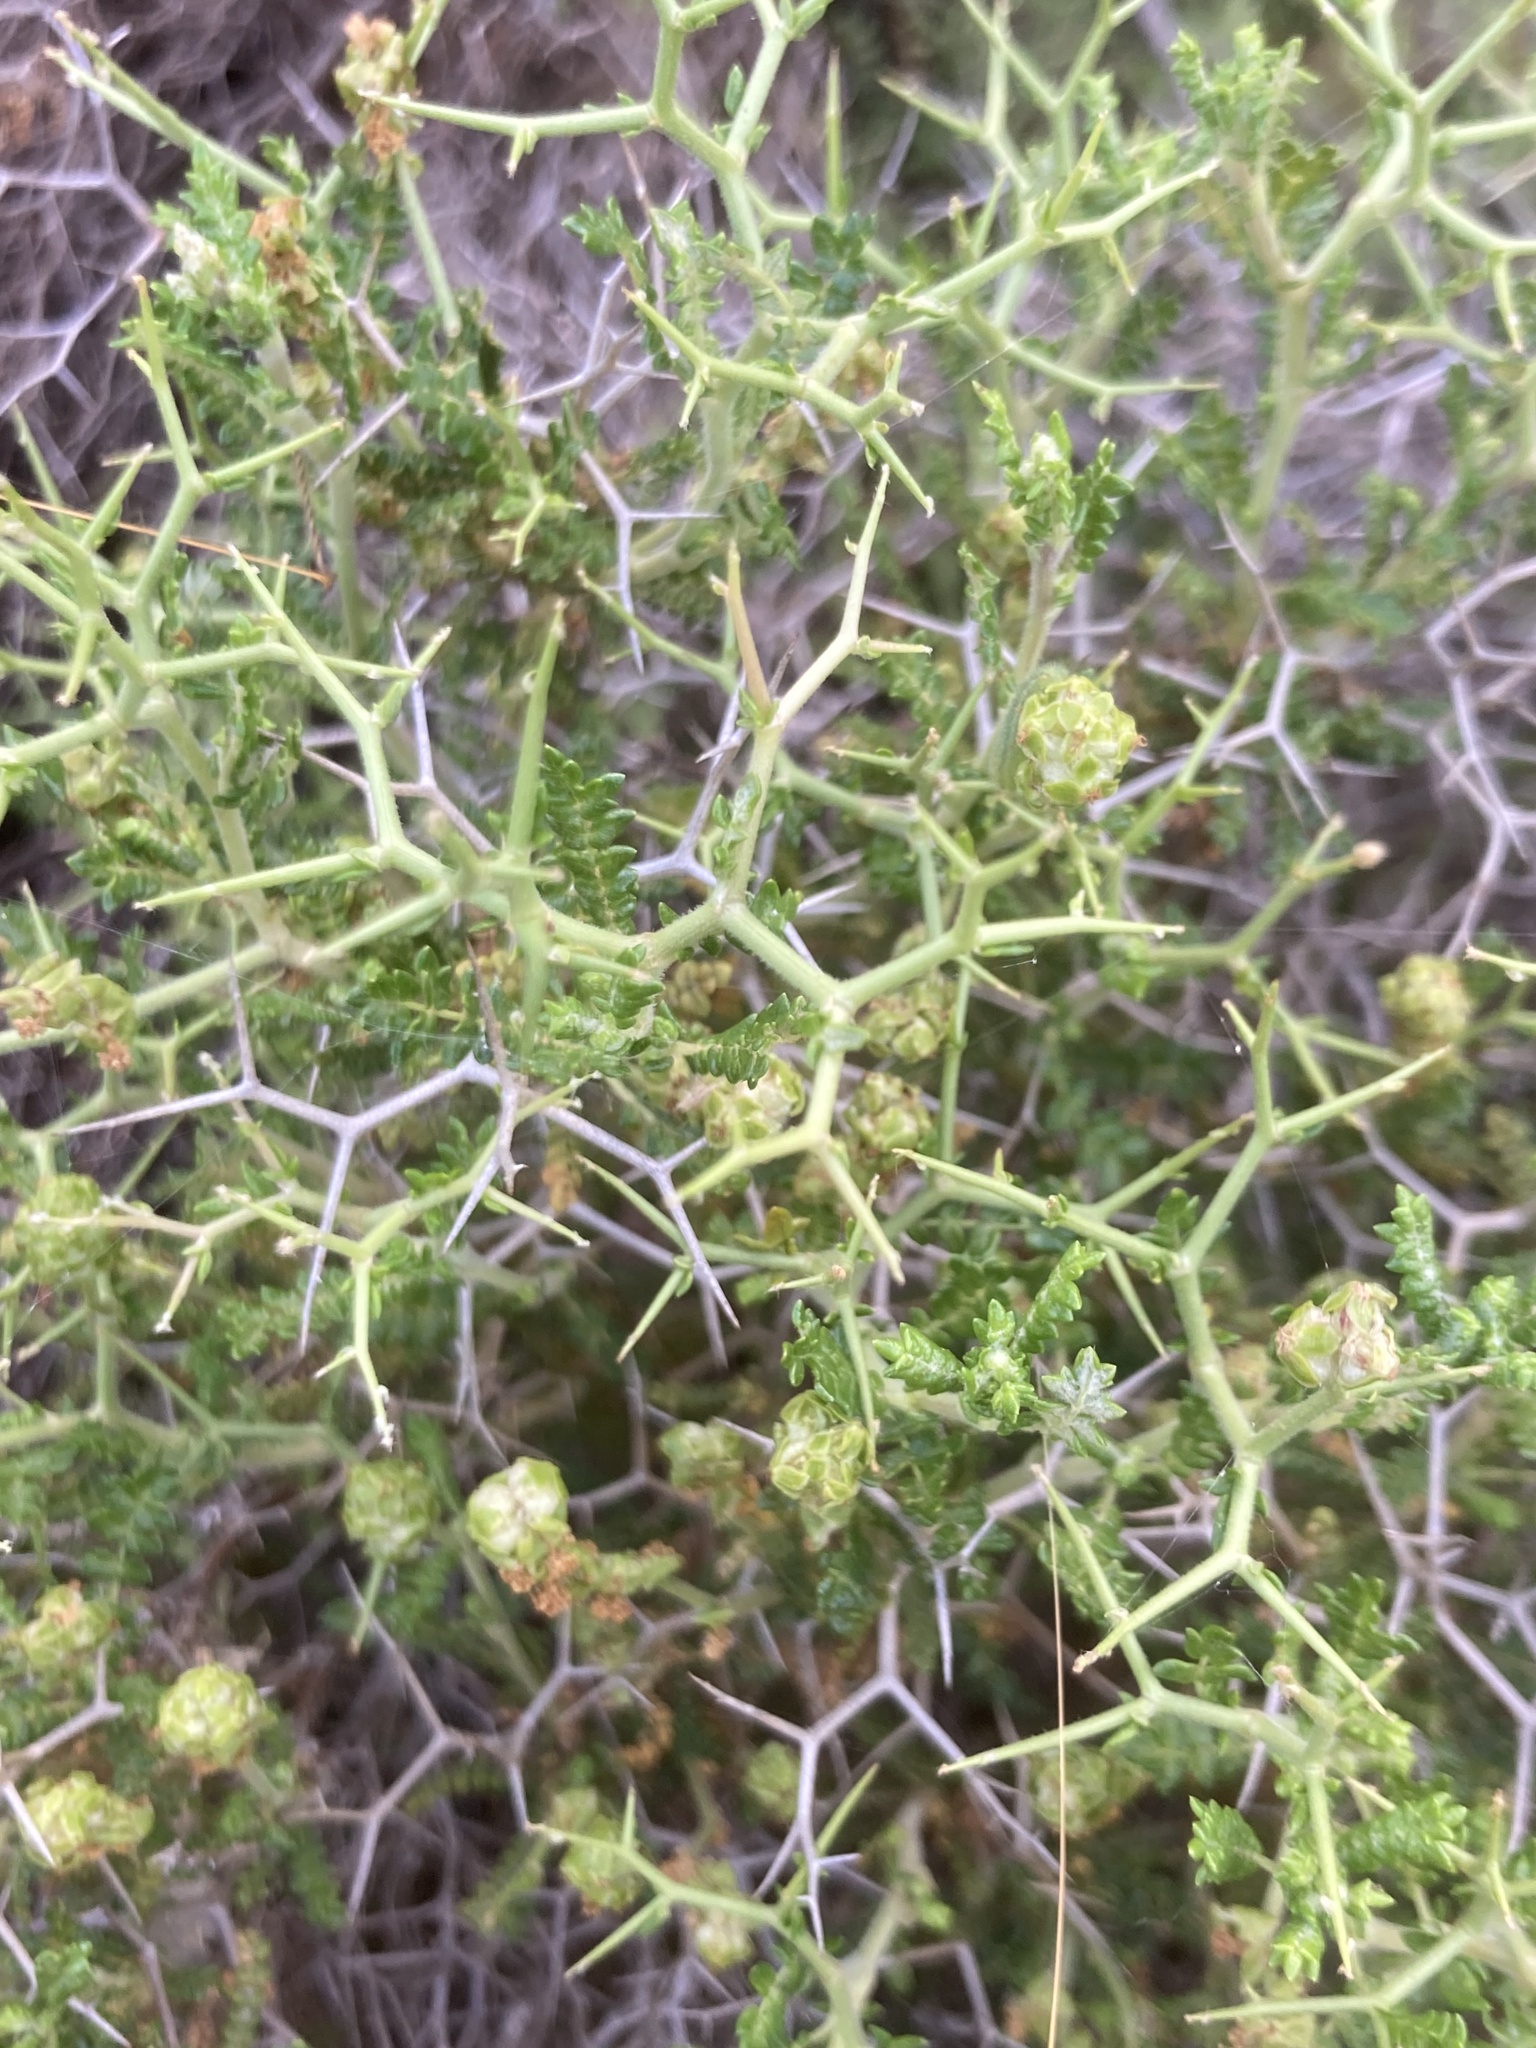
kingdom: Plantae
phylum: Tracheophyta
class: Magnoliopsida
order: Rosales
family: Rosaceae
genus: Sarcopoterium
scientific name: Sarcopoterium spinosum
